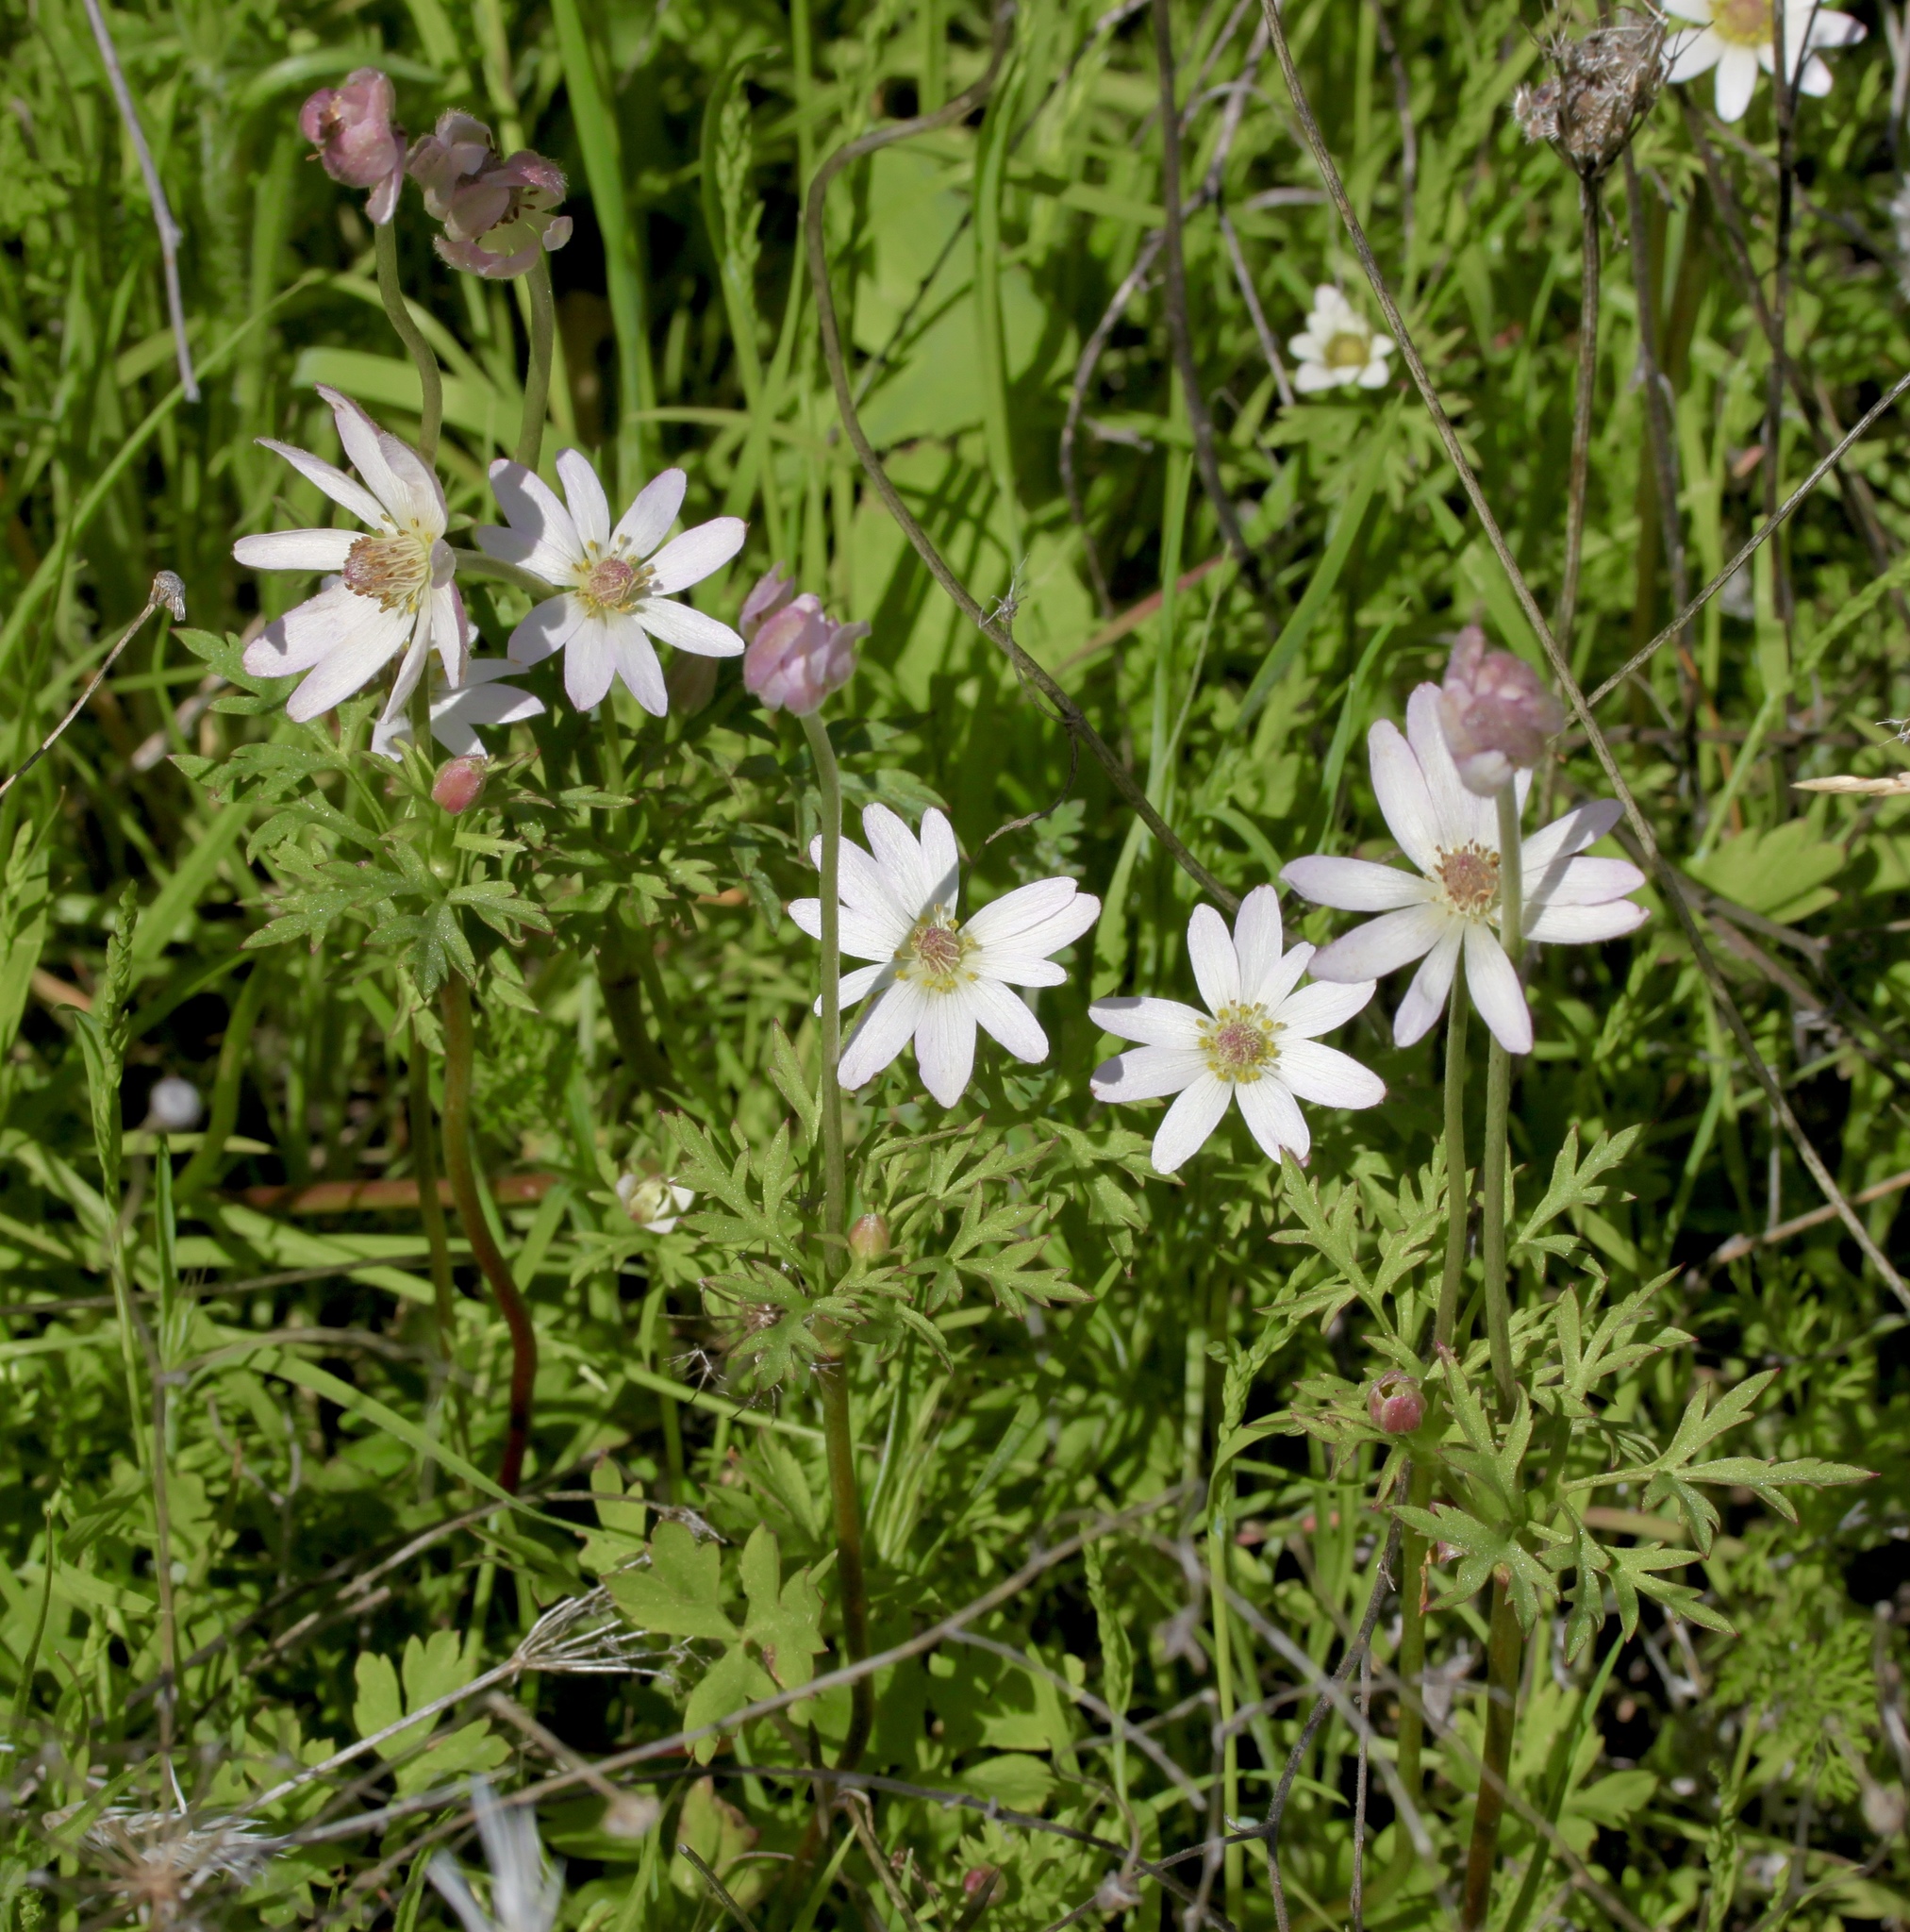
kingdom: Plantae
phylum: Tracheophyta
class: Magnoliopsida
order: Ranunculales
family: Ranunculaceae
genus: Anemone
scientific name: Anemone tuberosa
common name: Desert anemone
